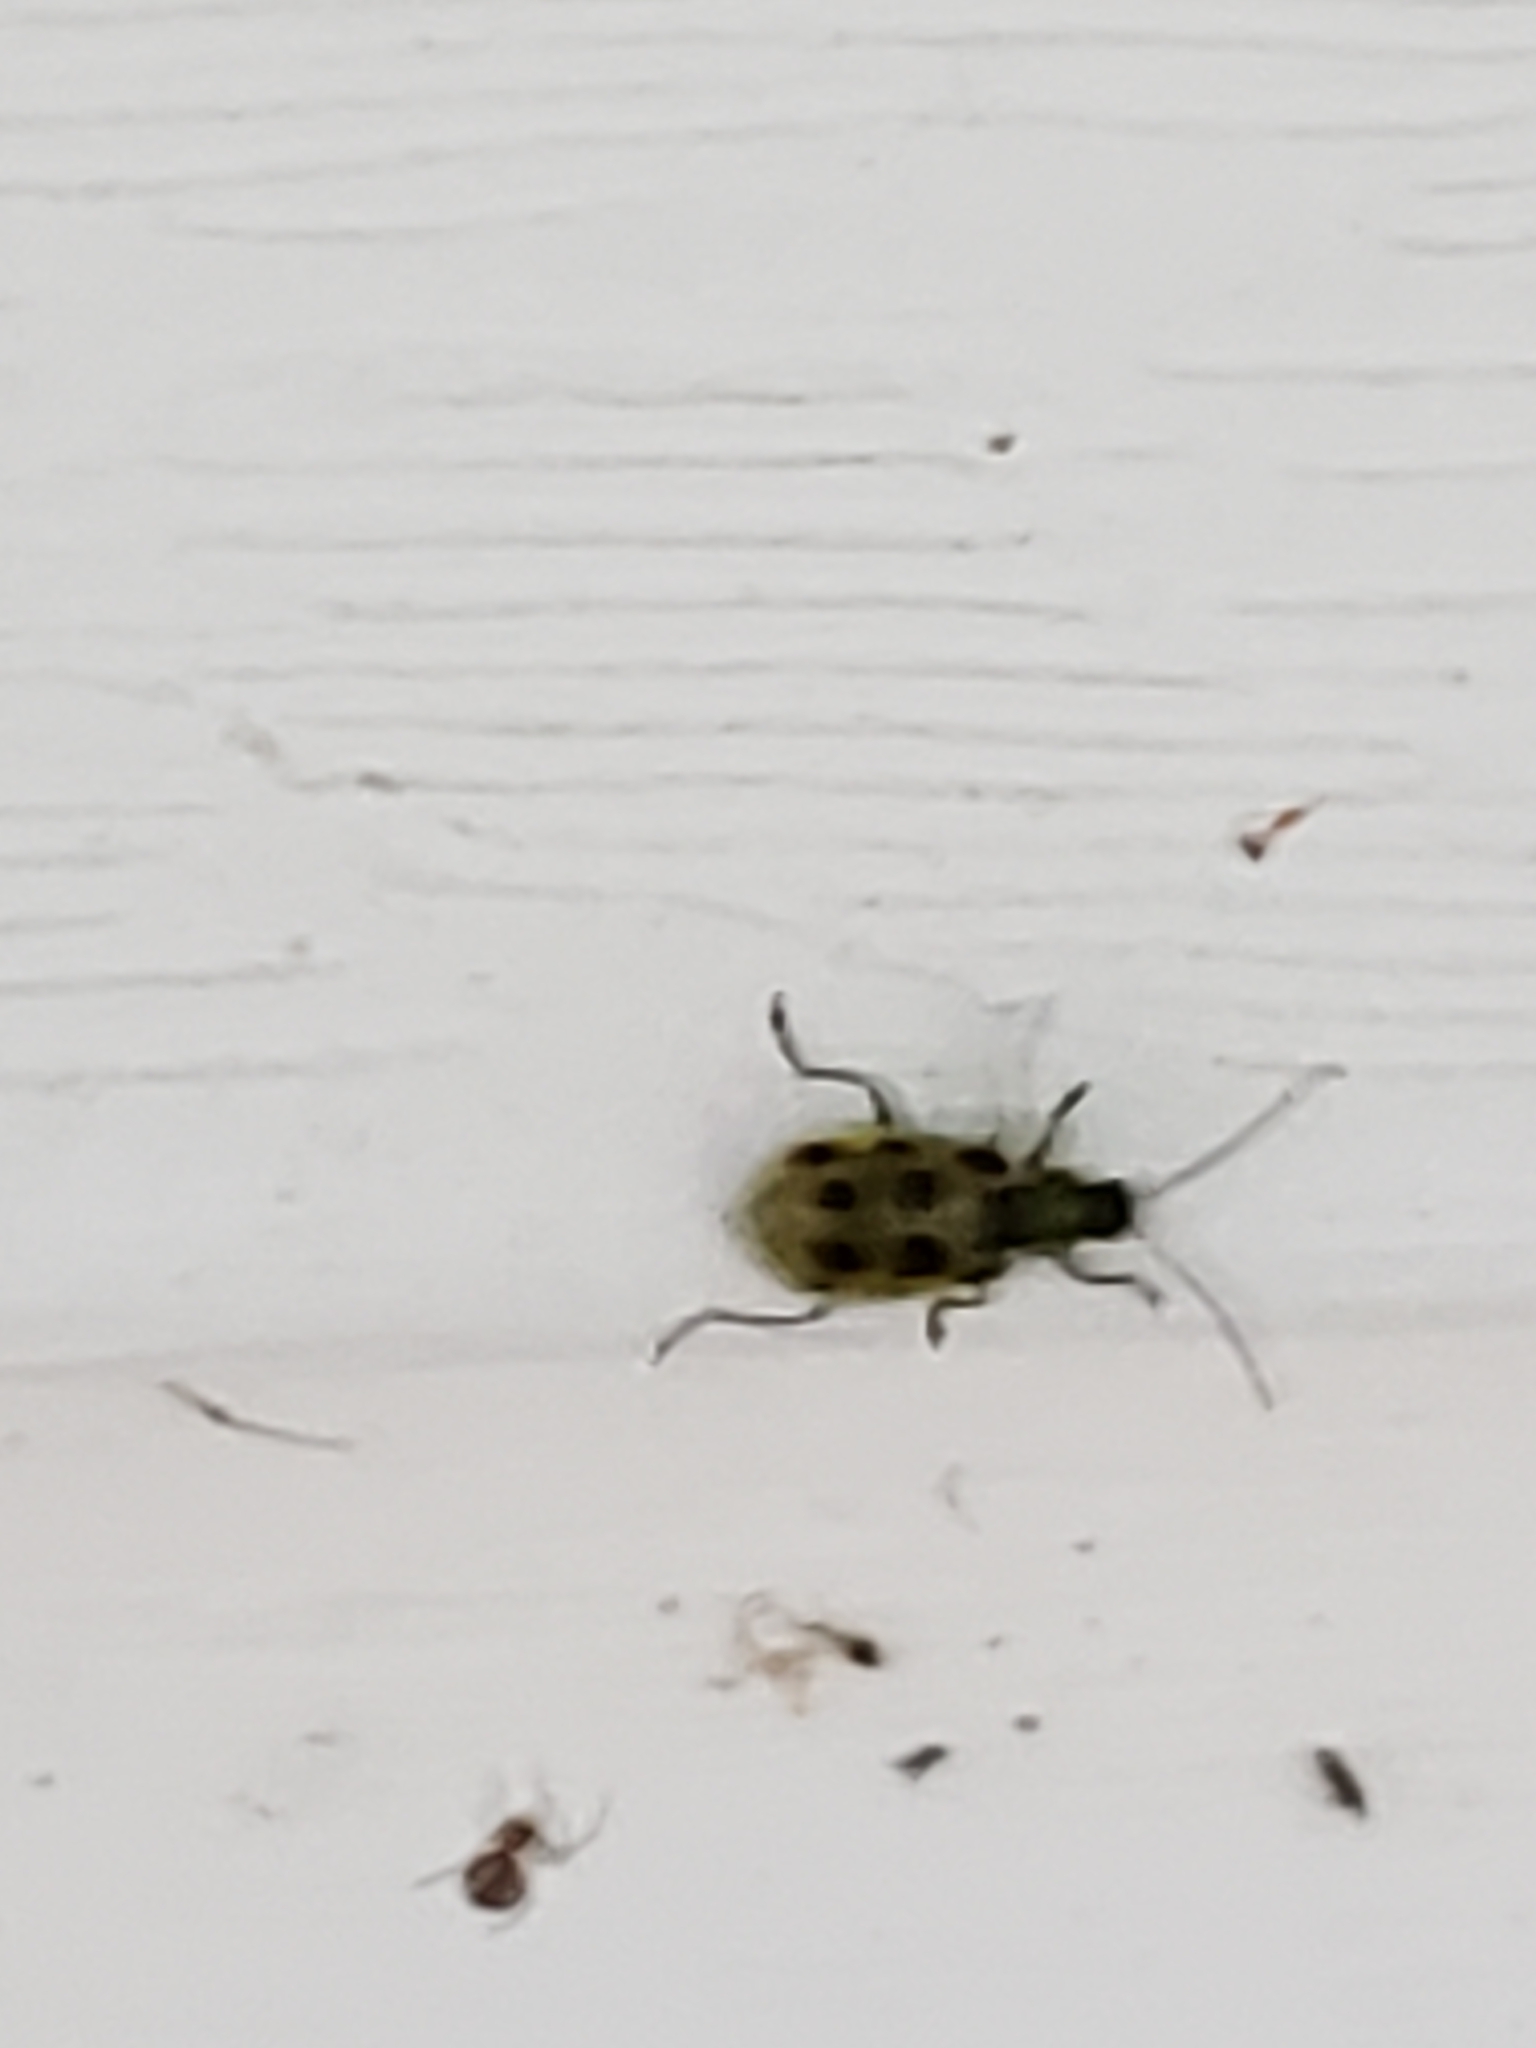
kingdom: Animalia
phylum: Arthropoda
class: Insecta
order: Coleoptera
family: Chrysomelidae
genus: Diabrotica
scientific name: Diabrotica undecimpunctata
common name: Spotted cucumber beetle
